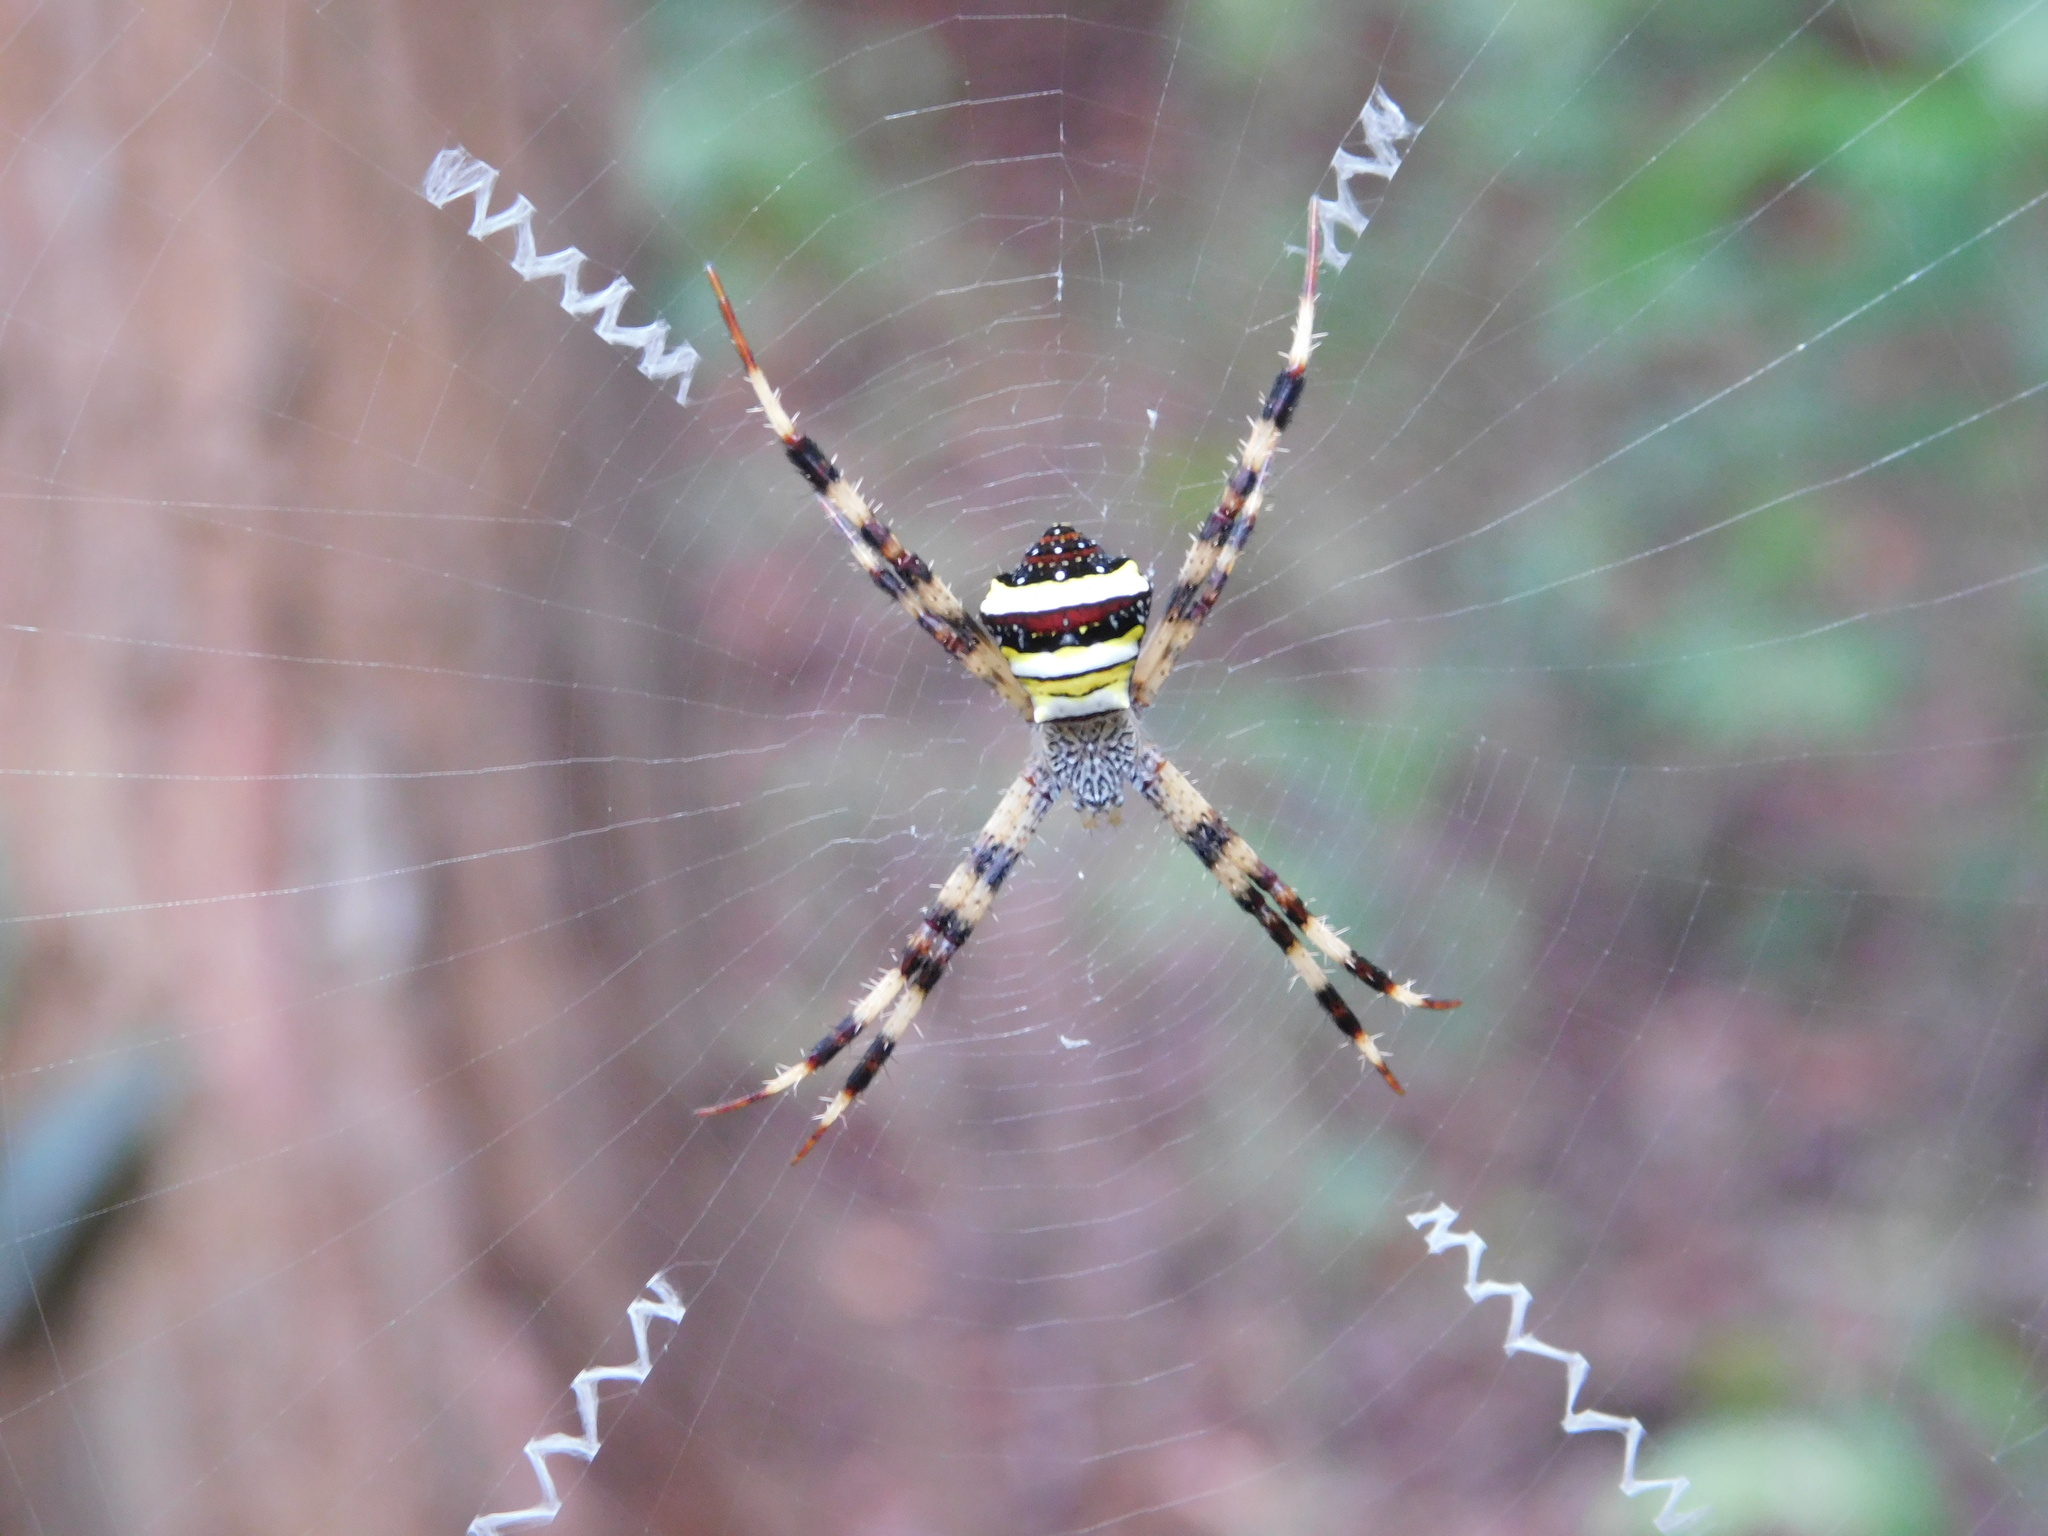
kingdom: Animalia
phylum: Arthropoda
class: Arachnida
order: Araneae
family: Araneidae
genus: Argiope
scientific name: Argiope versicolor
